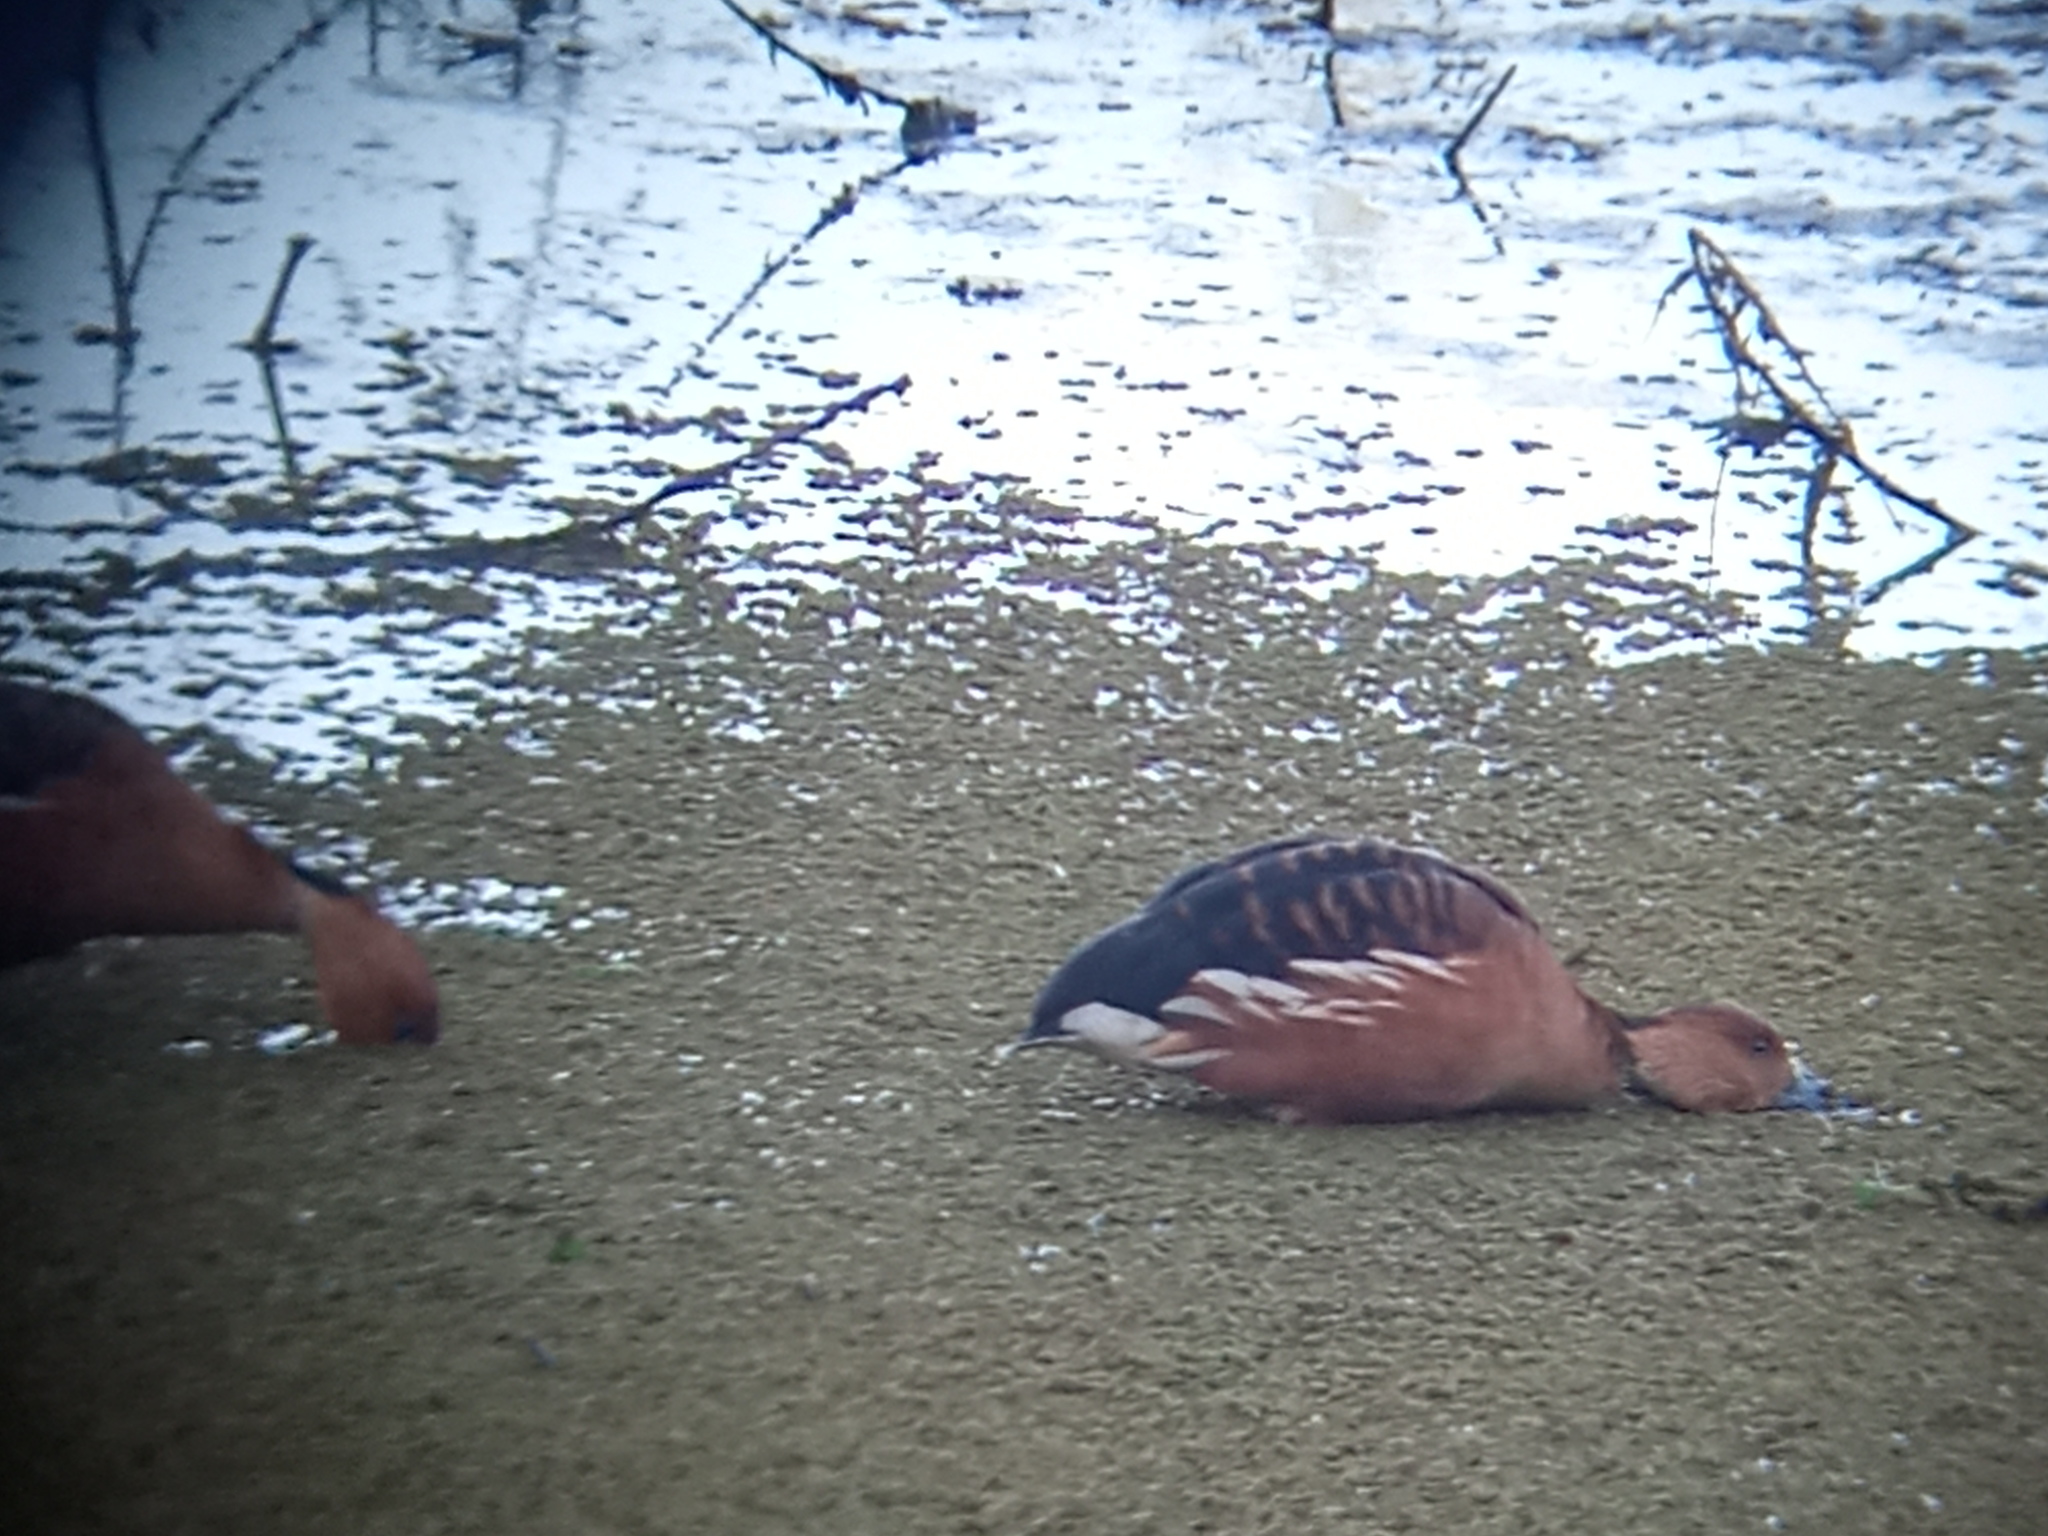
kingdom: Animalia
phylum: Chordata
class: Aves
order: Anseriformes
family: Anatidae
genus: Dendrocygna
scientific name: Dendrocygna bicolor
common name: Fulvous whistling duck
